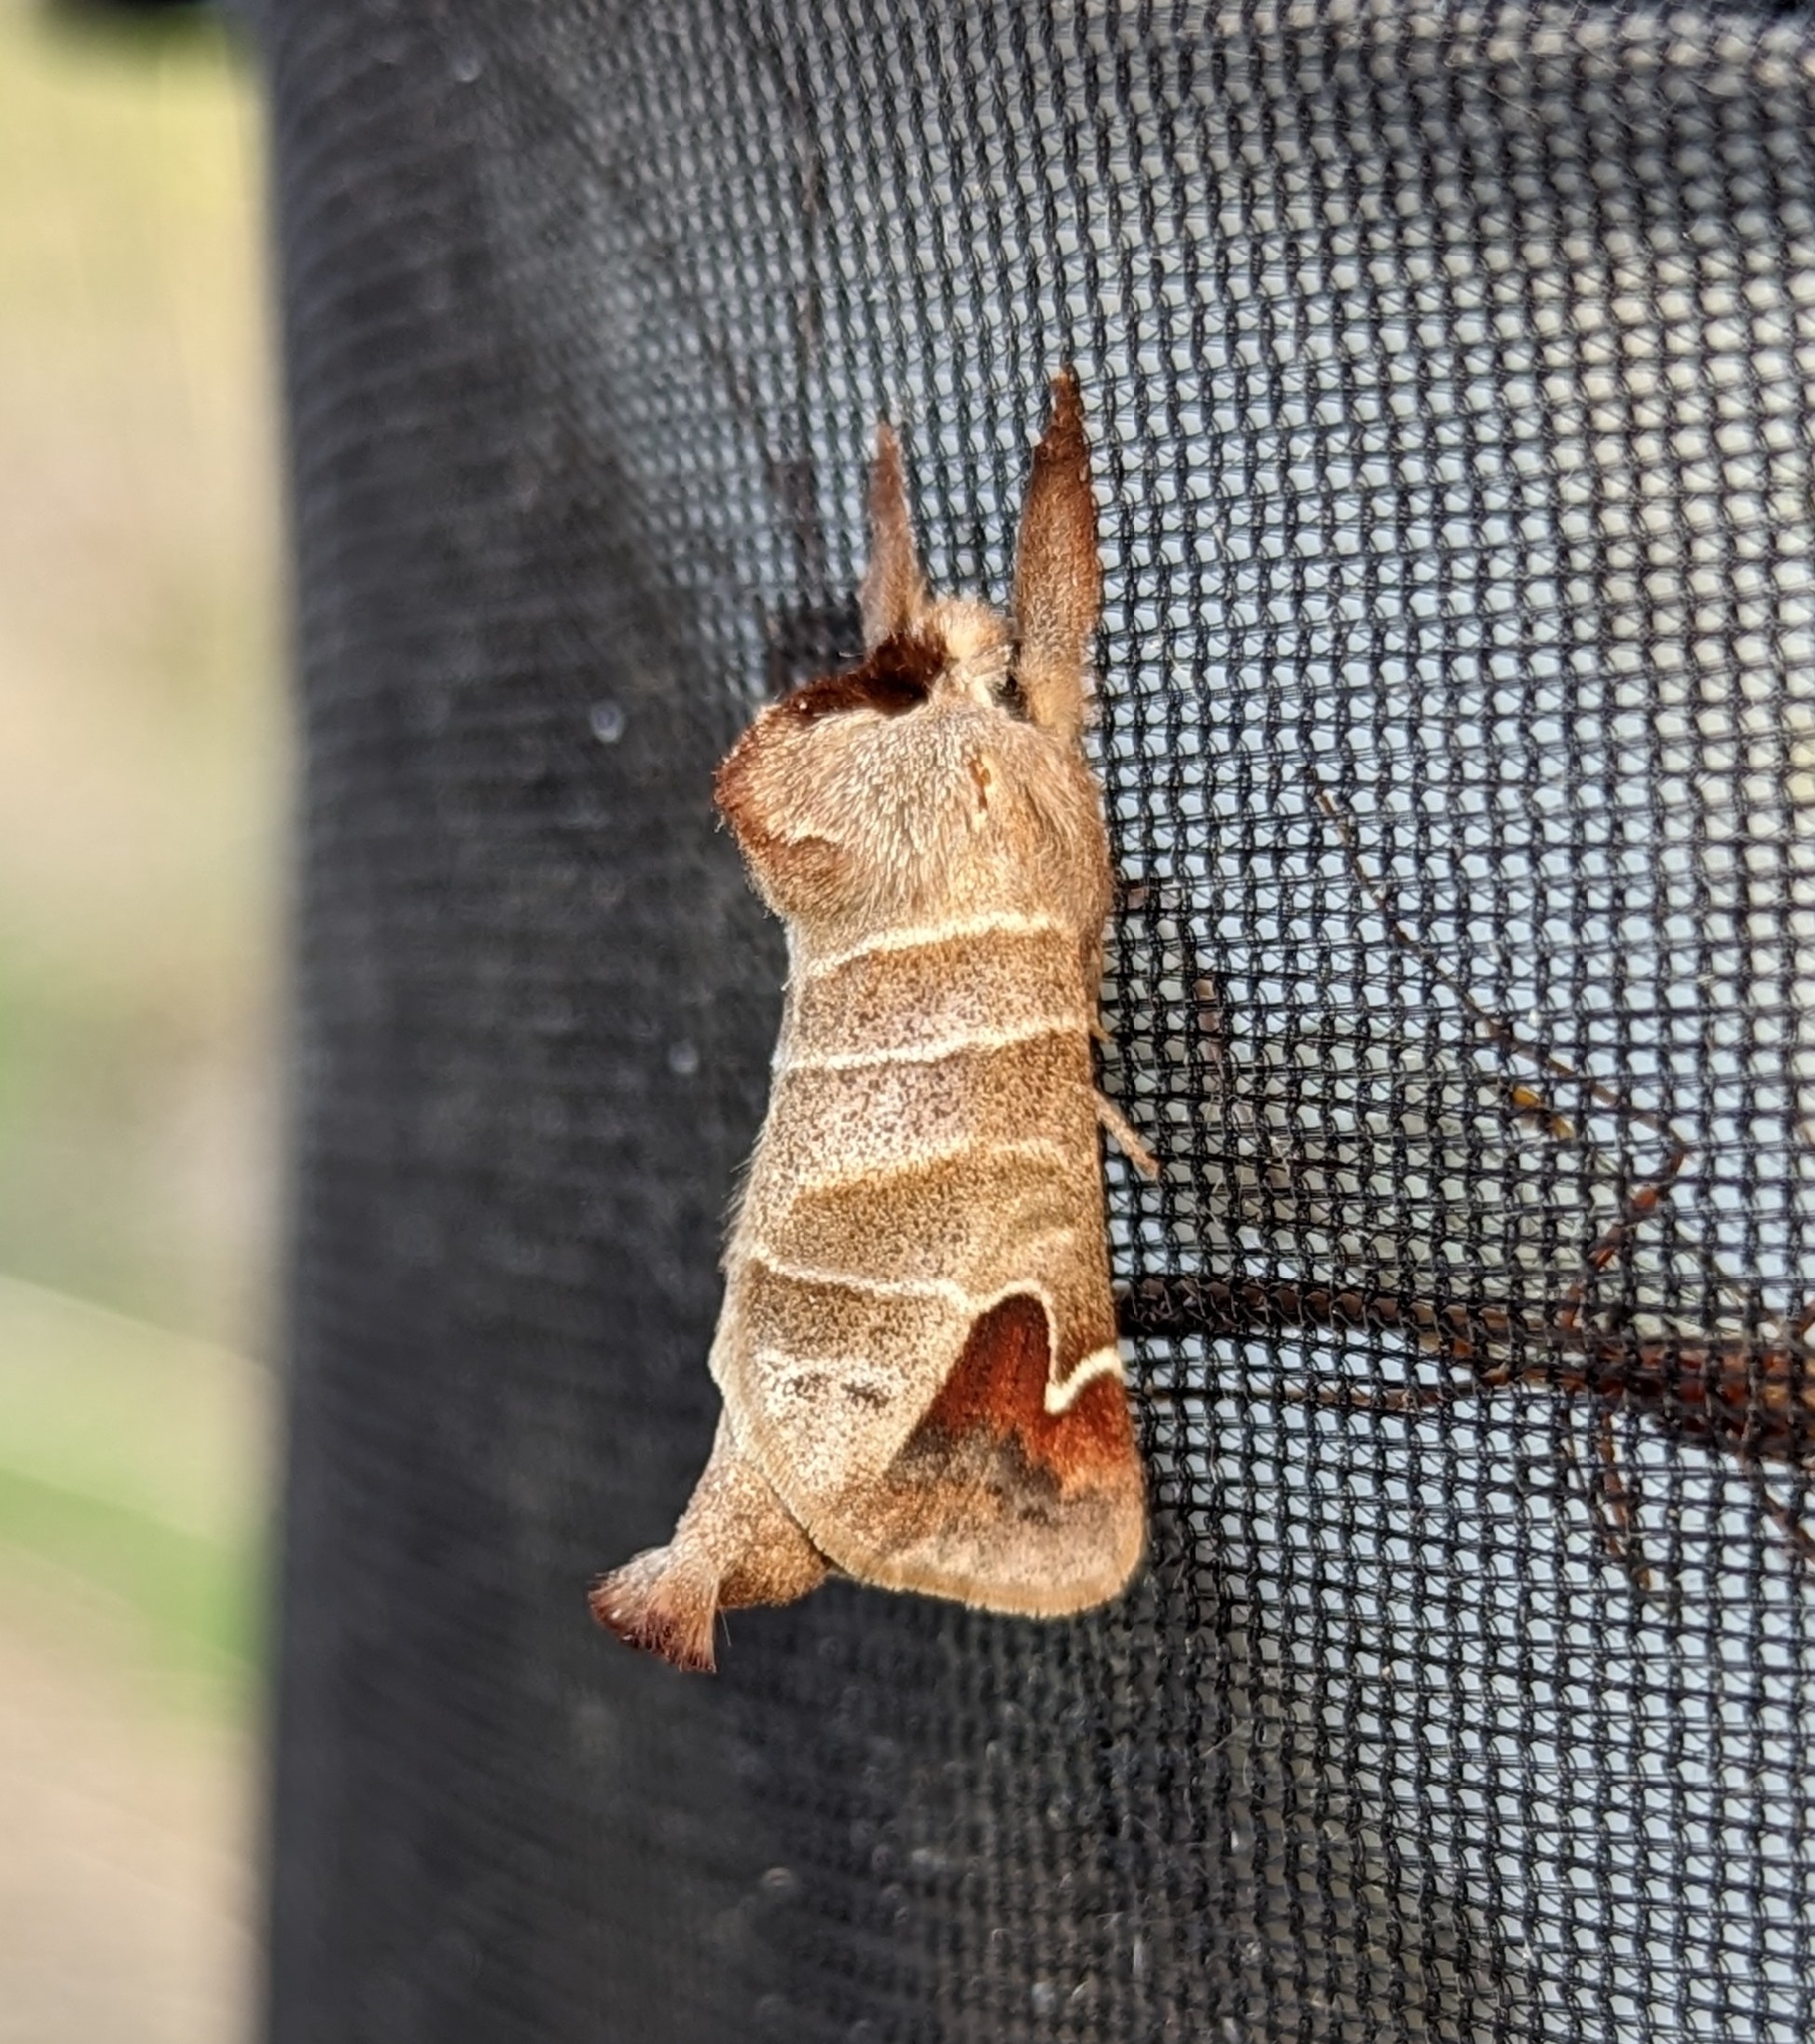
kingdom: Animalia
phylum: Arthropoda
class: Insecta
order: Lepidoptera
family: Notodontidae
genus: Clostera
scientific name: Clostera albosigma
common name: Sigmoid prominent
